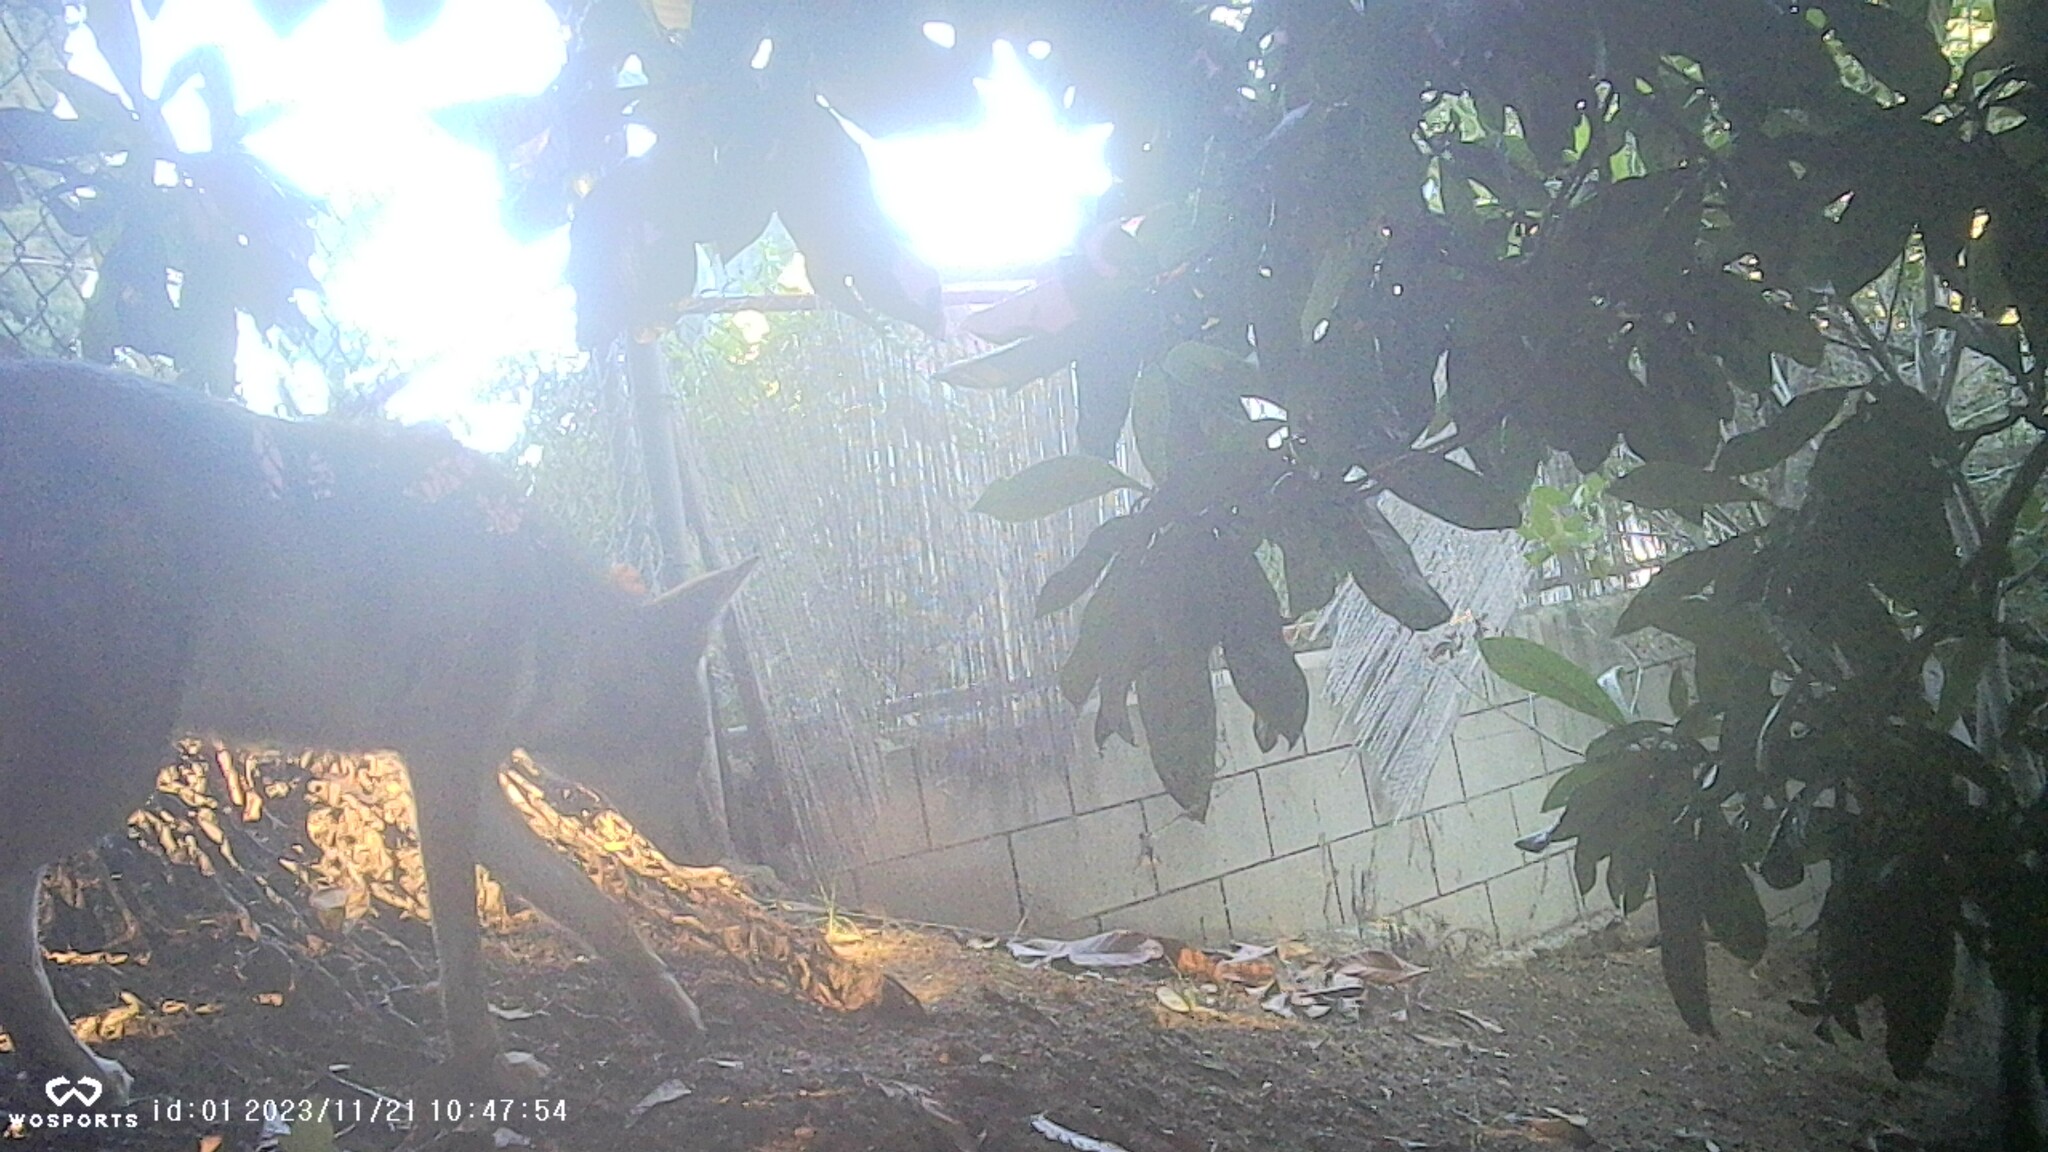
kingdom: Animalia
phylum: Chordata
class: Mammalia
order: Carnivora
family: Canidae
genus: Canis
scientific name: Canis latrans
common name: Coyote
